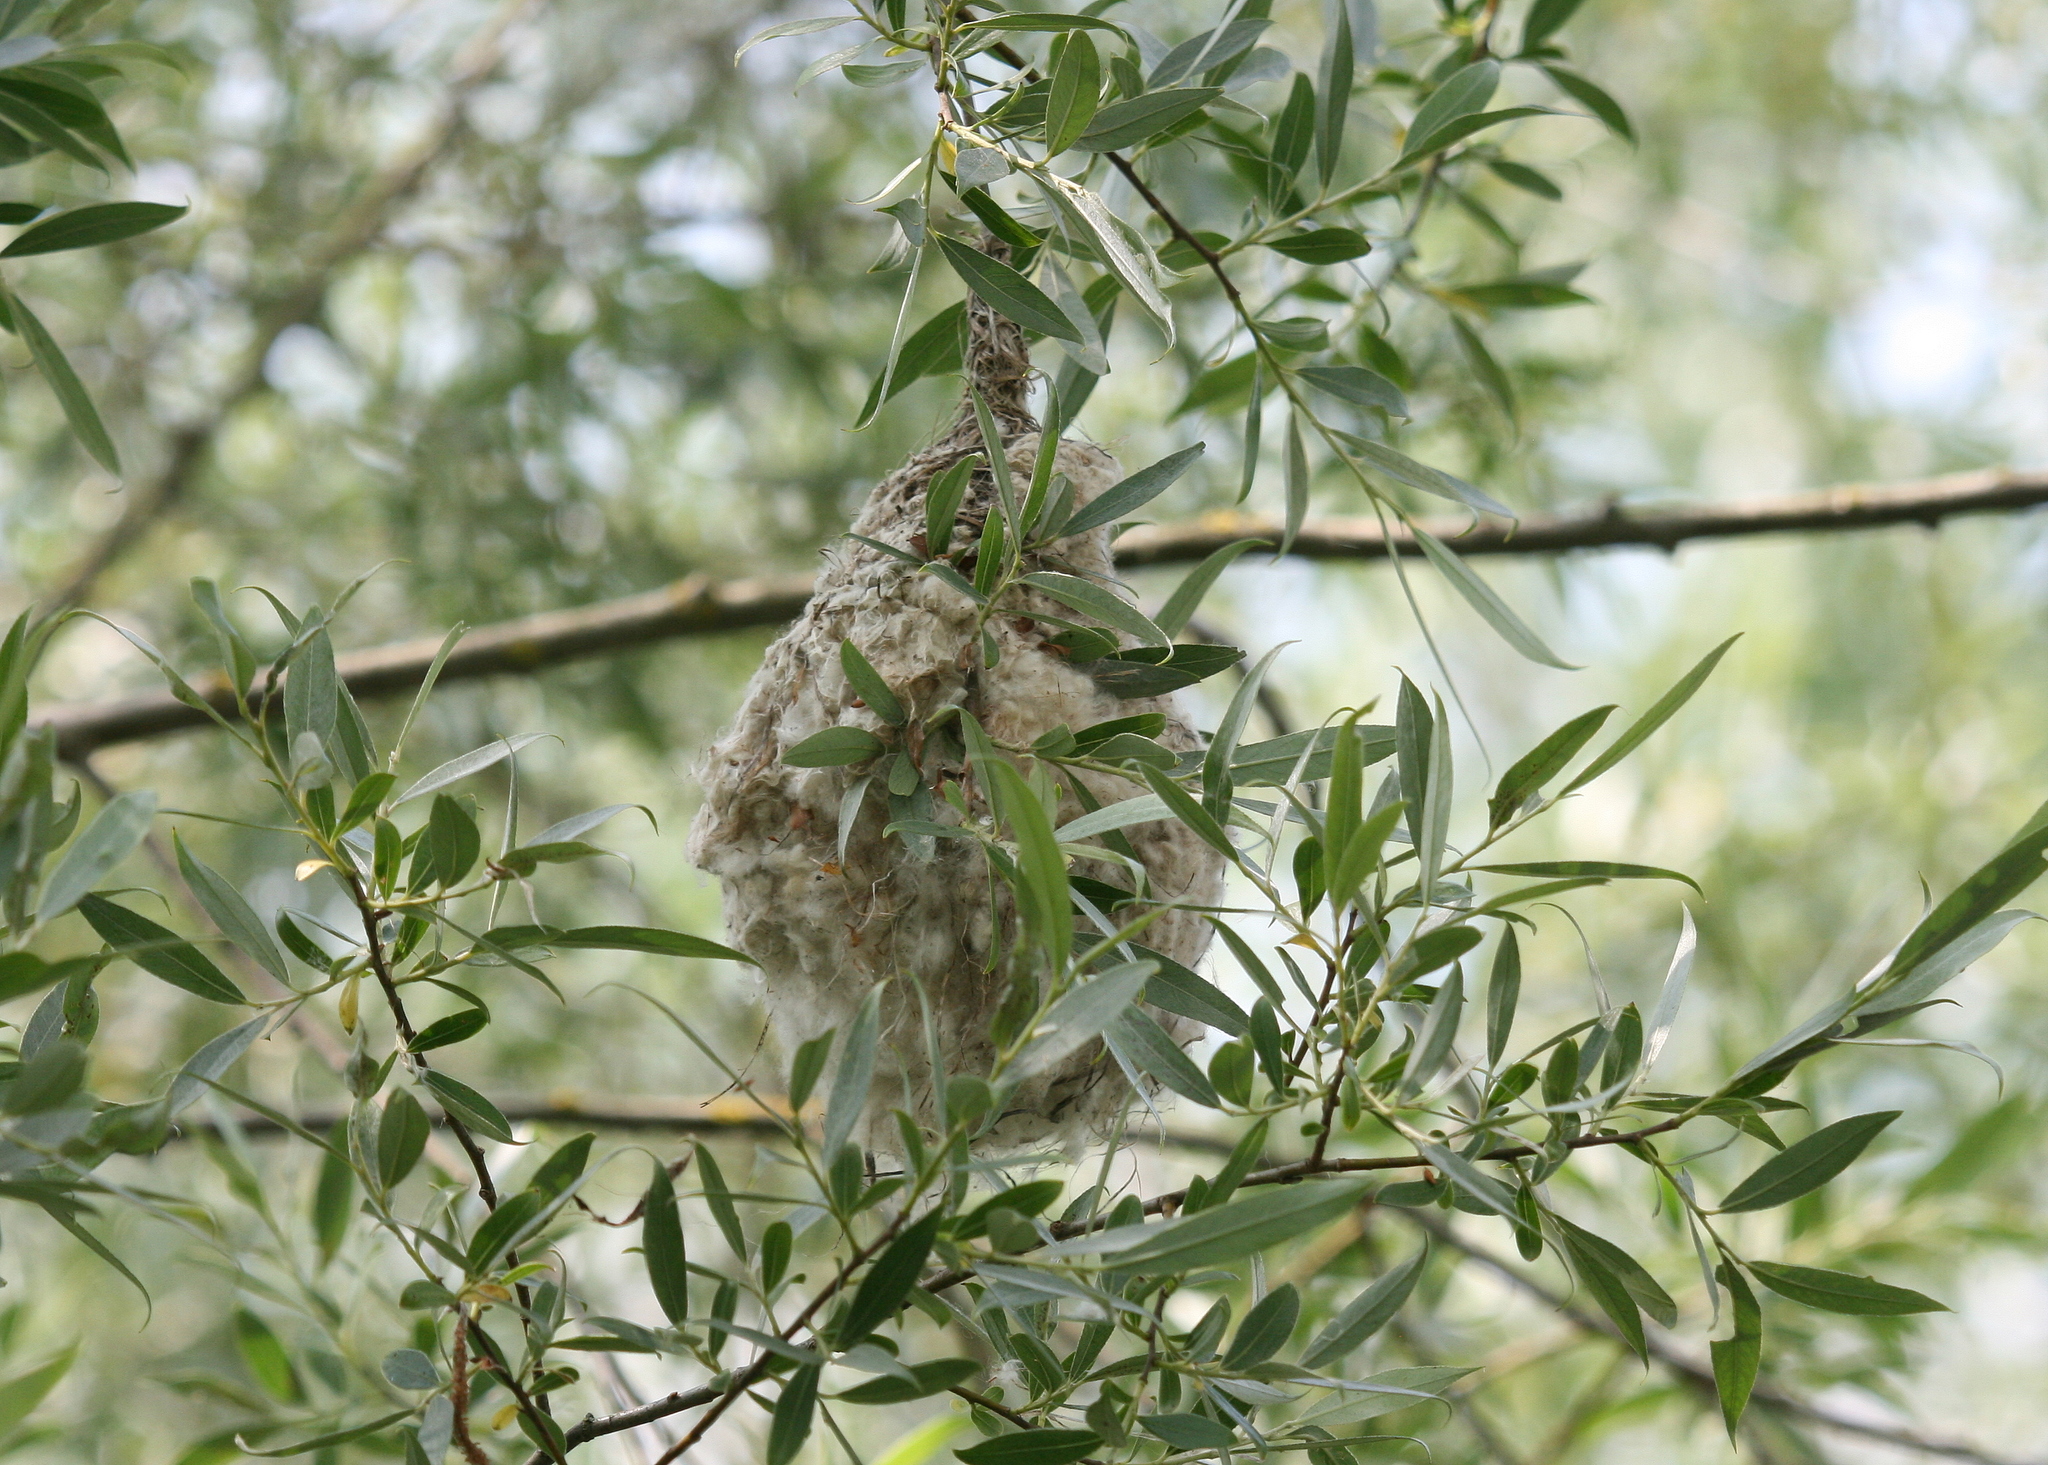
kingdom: Animalia
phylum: Chordata
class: Aves
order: Passeriformes
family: Remizidae
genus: Remiz
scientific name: Remiz pendulinus
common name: Eurasian penduline tit
